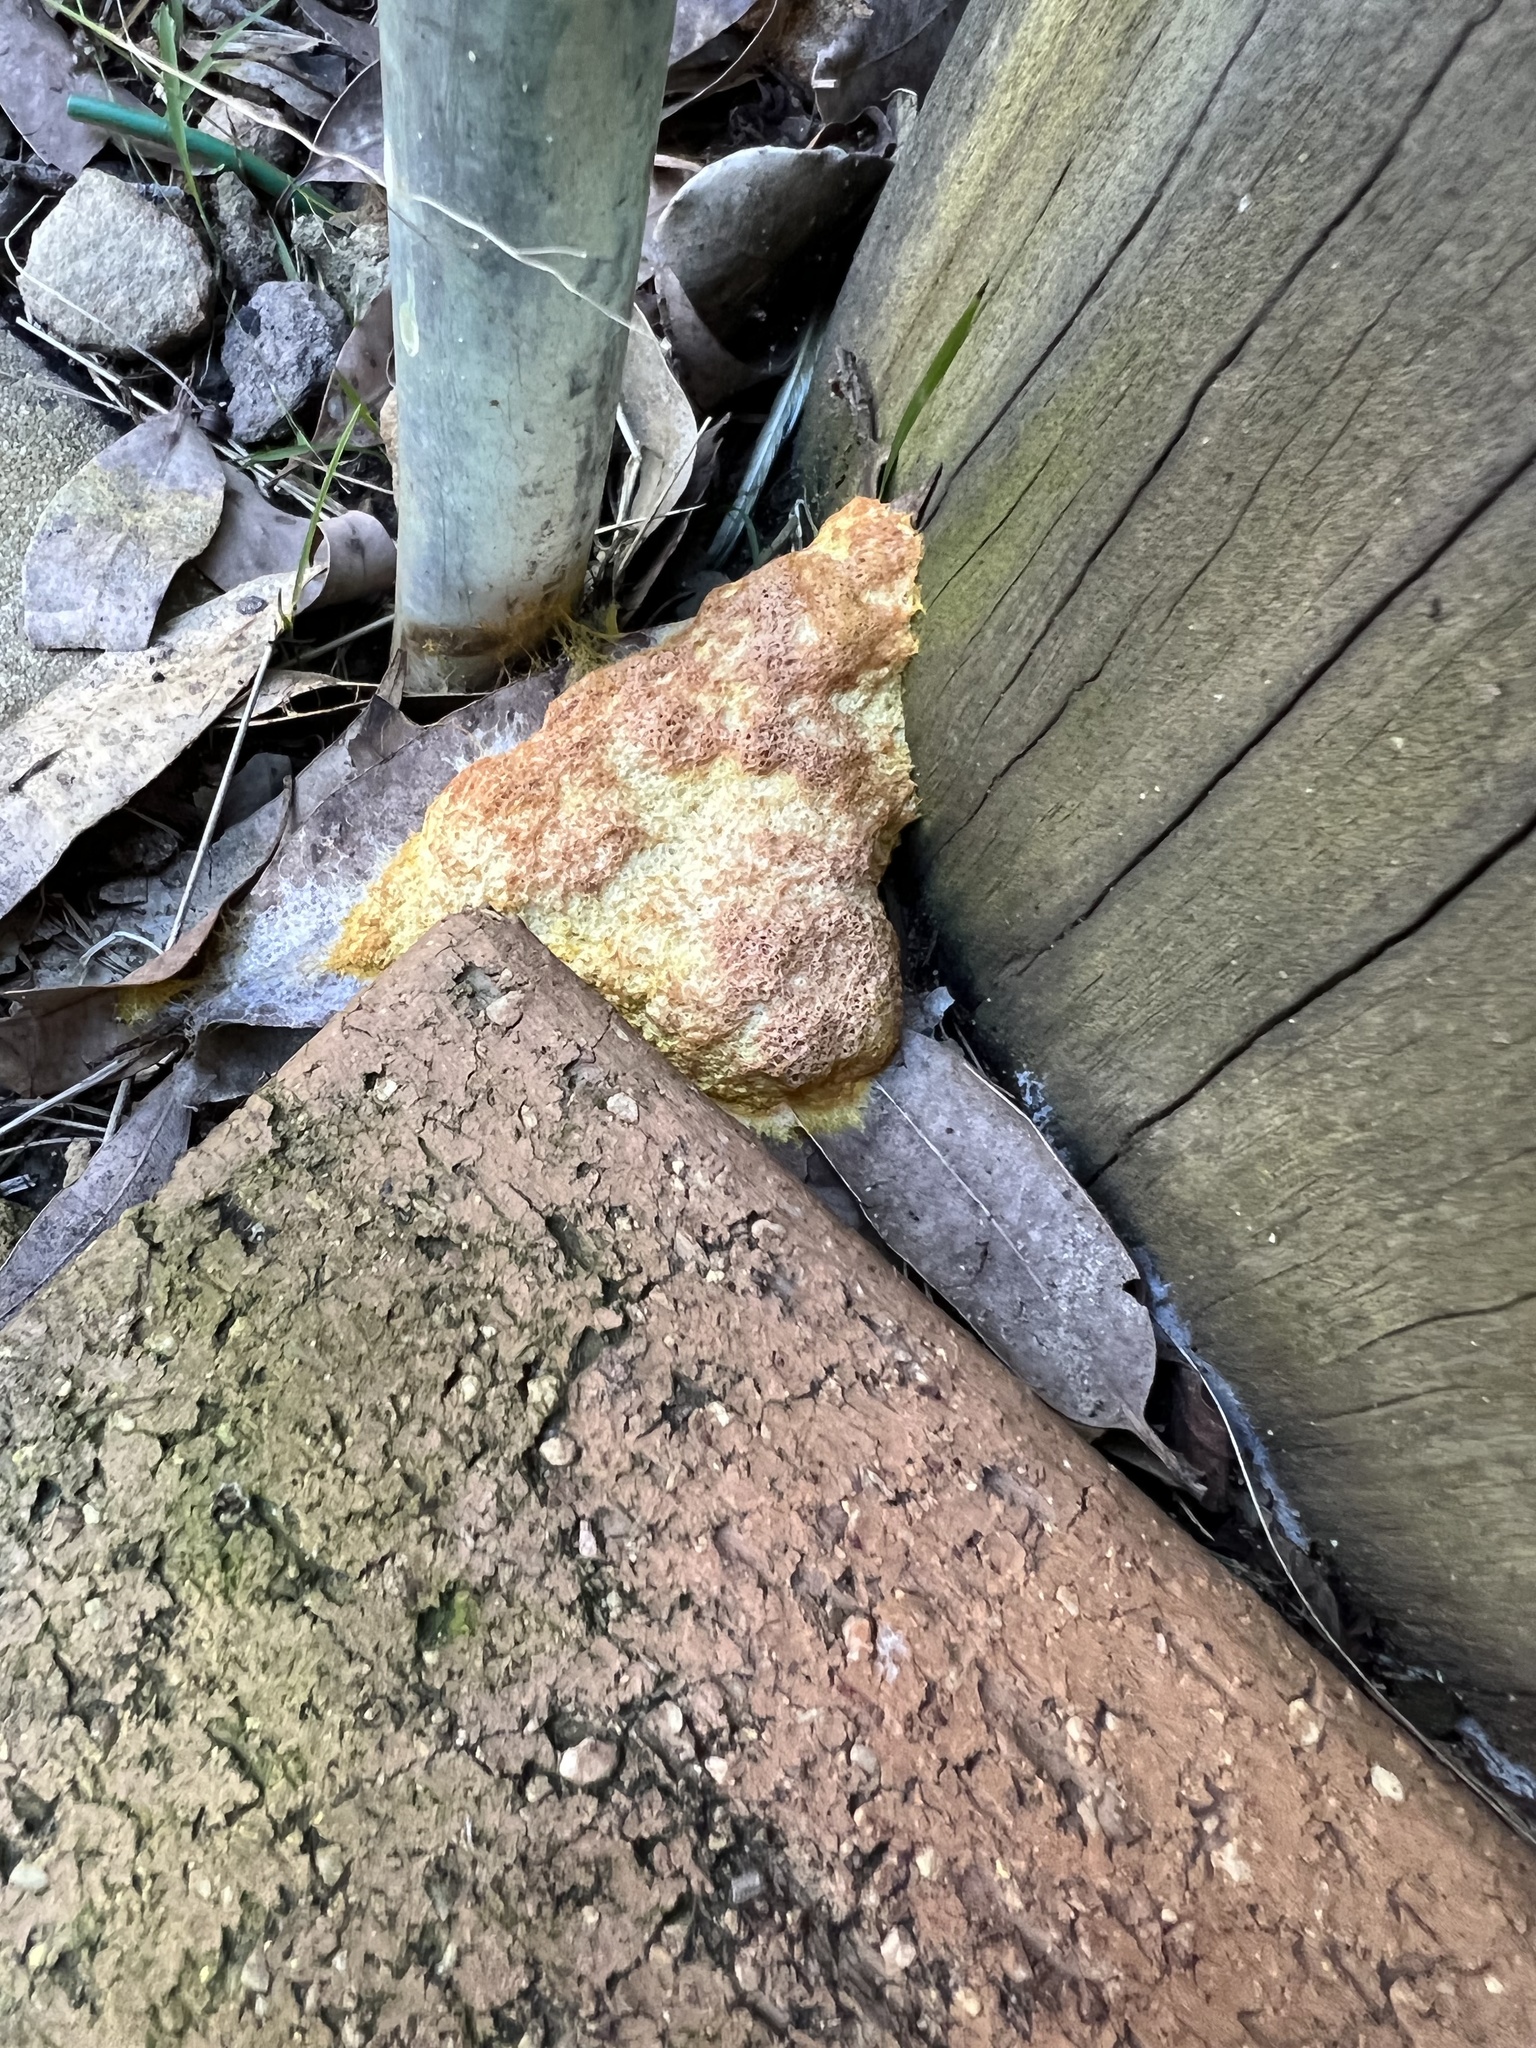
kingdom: Protozoa
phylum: Mycetozoa
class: Myxomycetes
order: Physarales
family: Physaraceae
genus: Fuligo
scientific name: Fuligo septica
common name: Dog vomit slime mold
